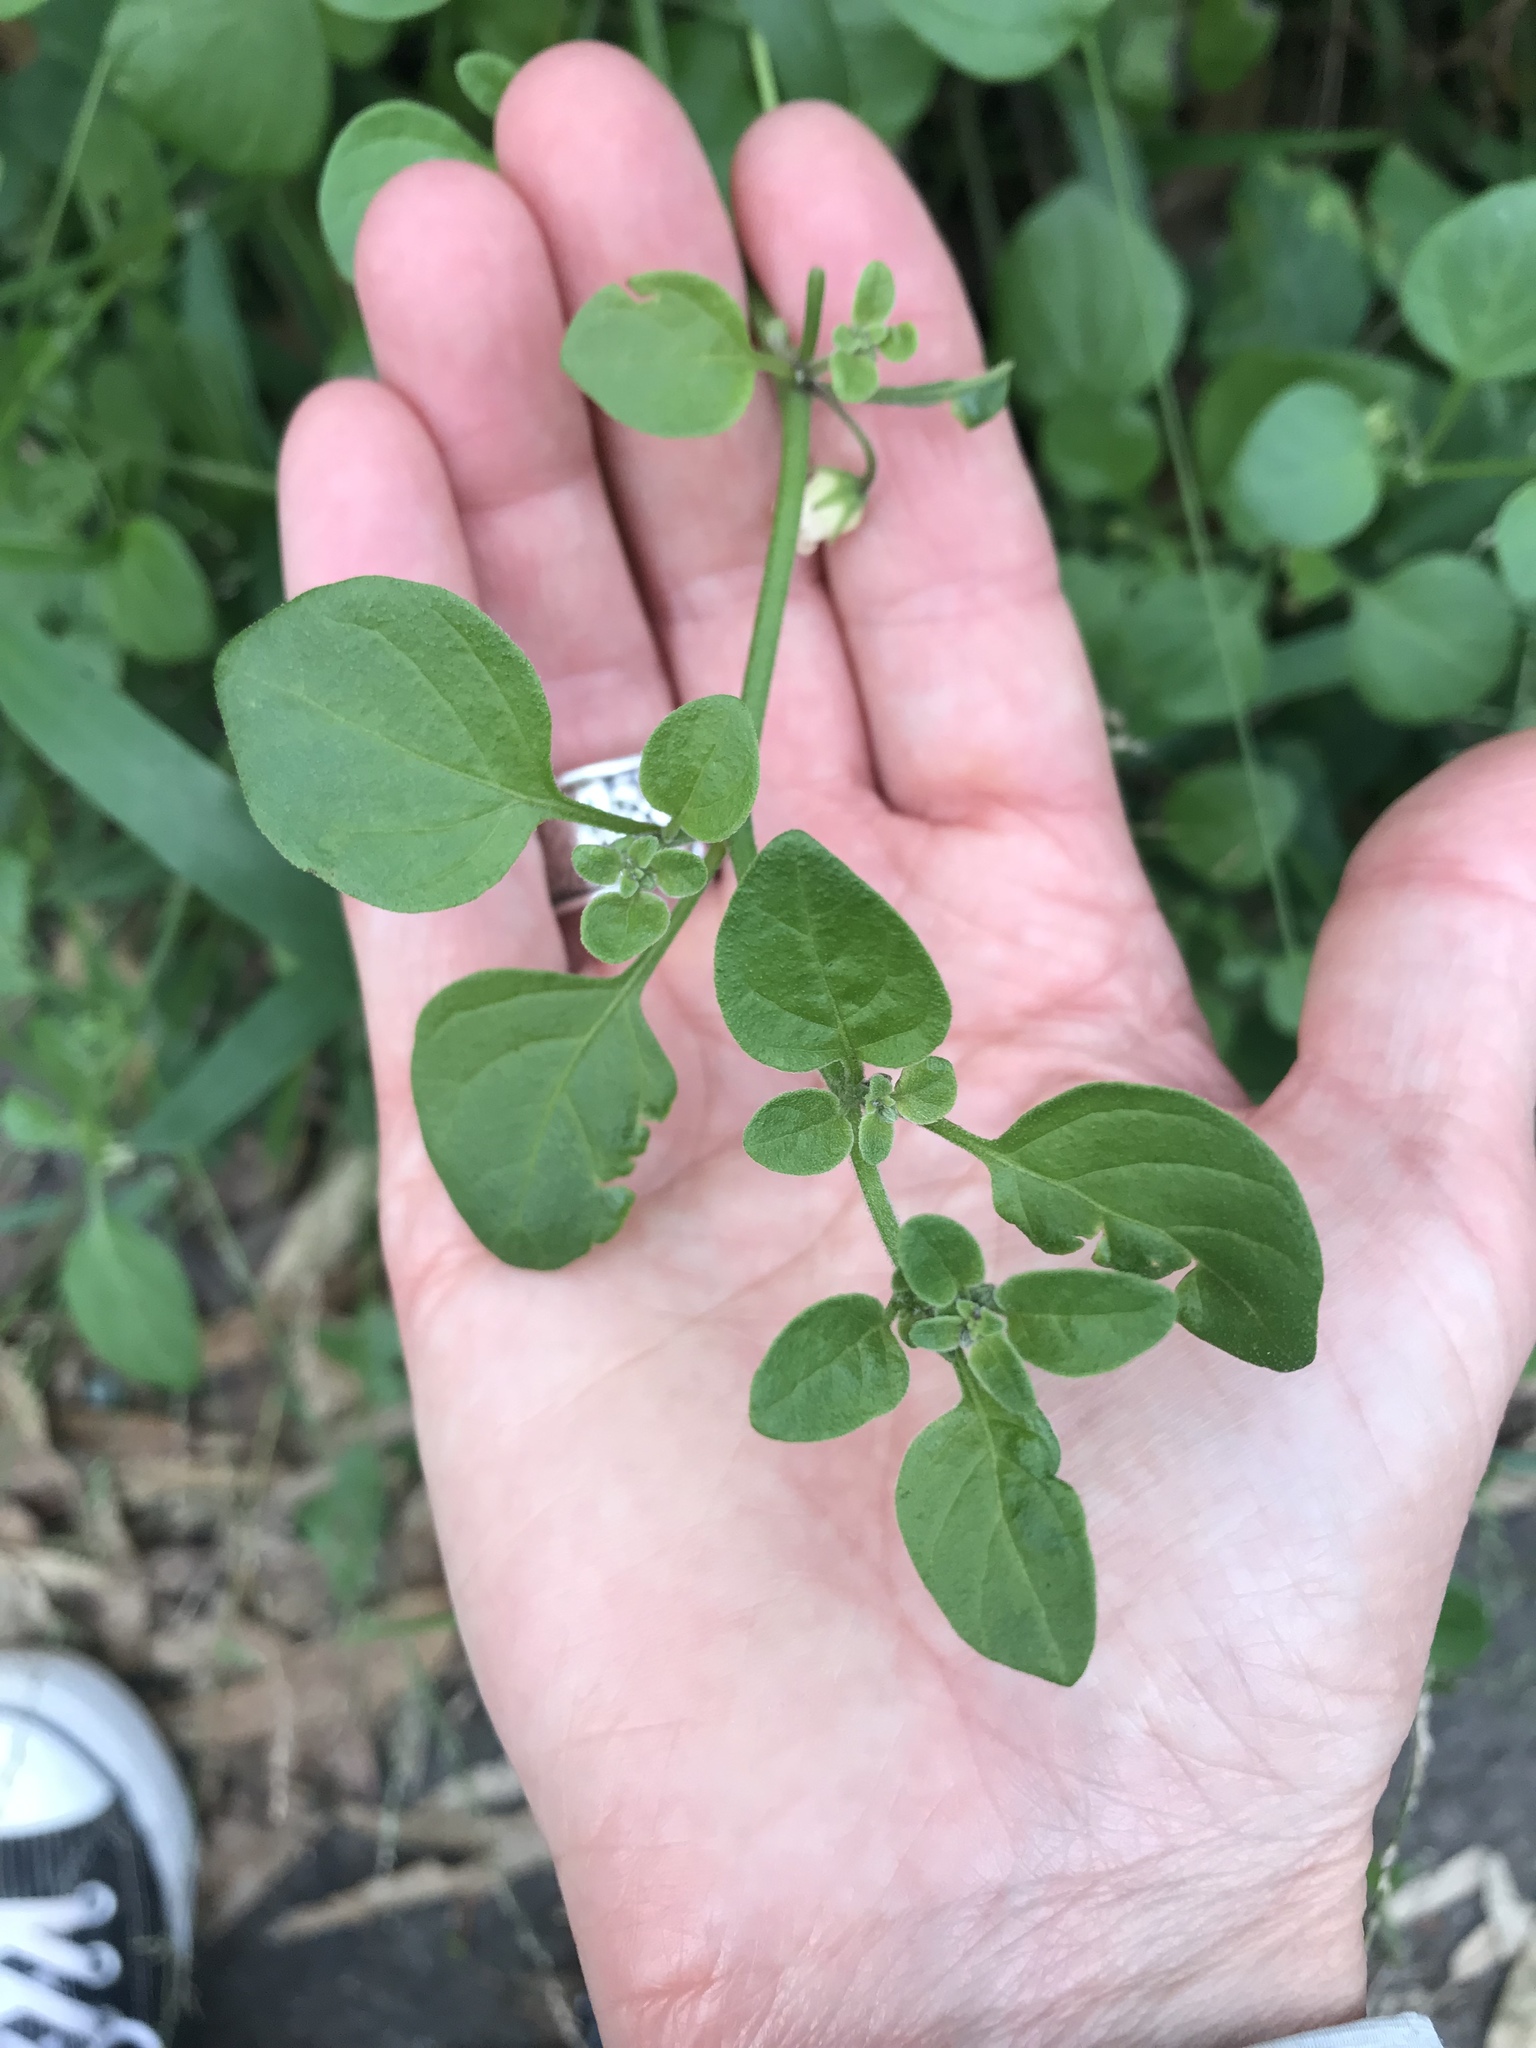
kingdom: Plantae
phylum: Tracheophyta
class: Magnoliopsida
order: Solanales
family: Solanaceae
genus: Salpichroa
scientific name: Salpichroa origanifolia
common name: Lily-of-the-valley-vine
